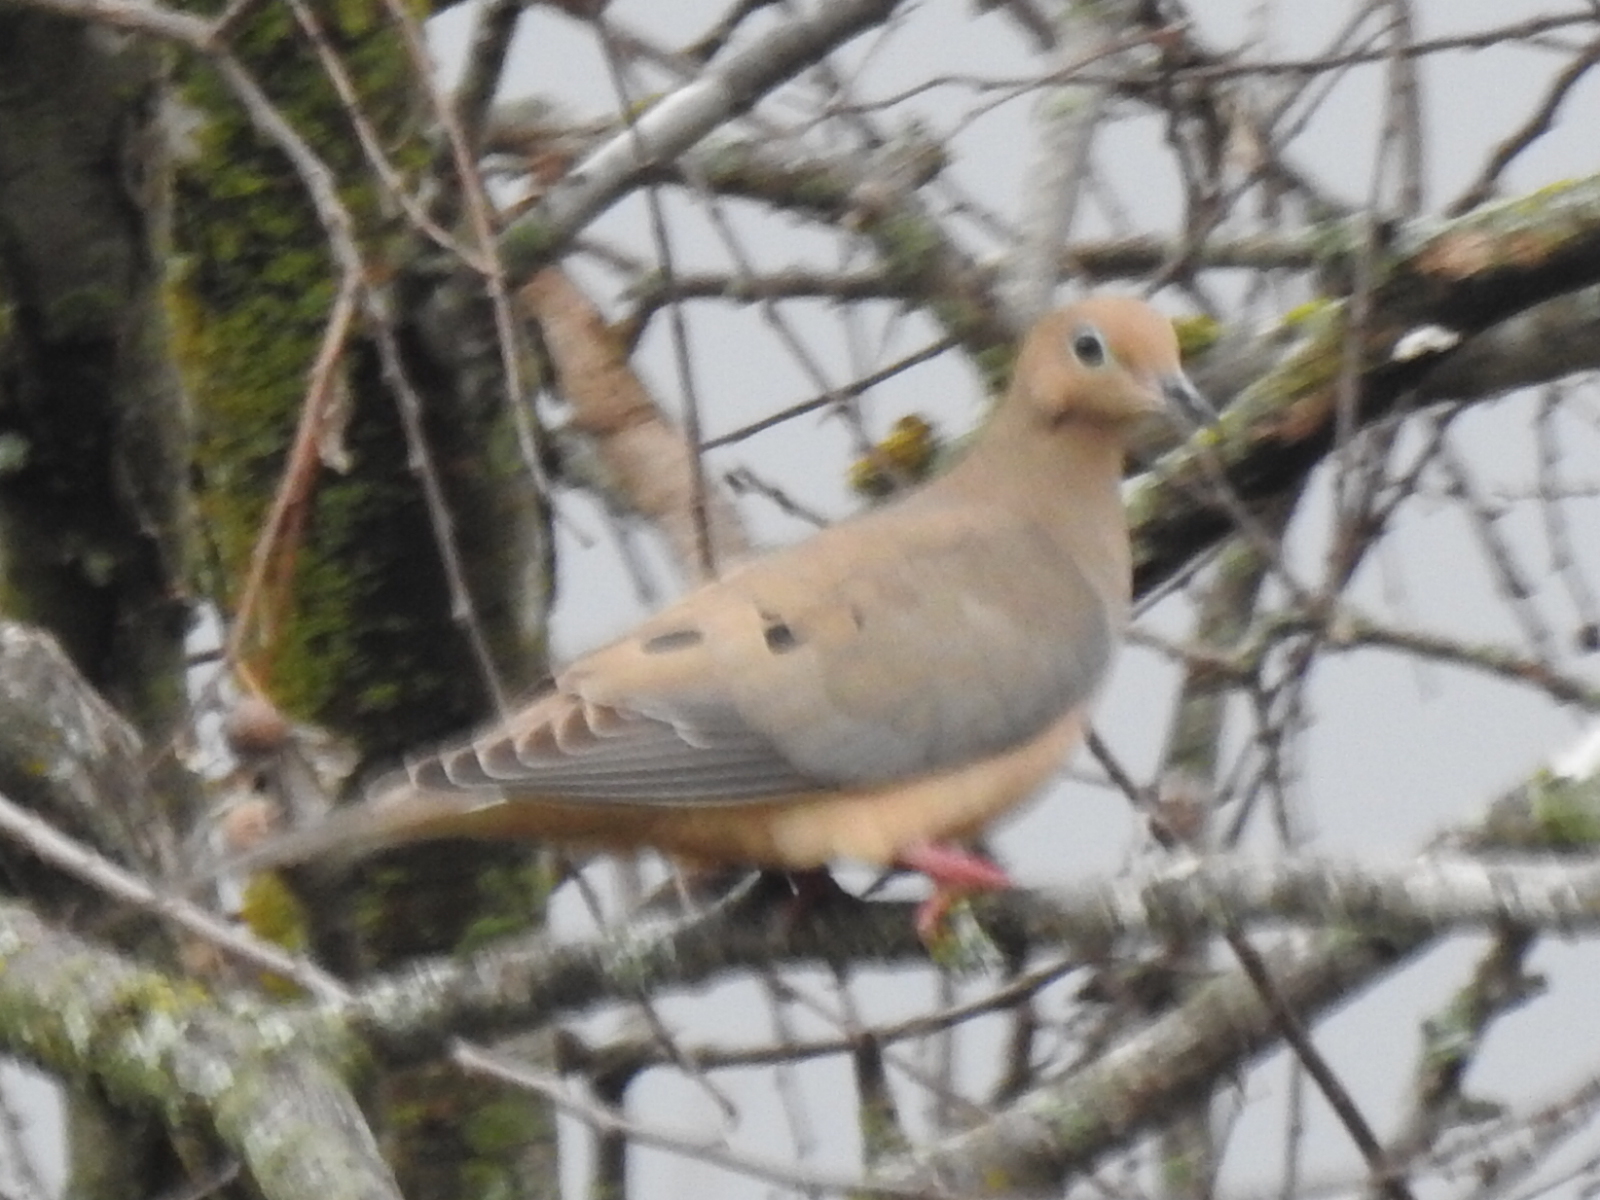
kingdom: Animalia
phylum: Chordata
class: Aves
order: Columbiformes
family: Columbidae
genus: Zenaida
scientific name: Zenaida macroura
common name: Mourning dove
